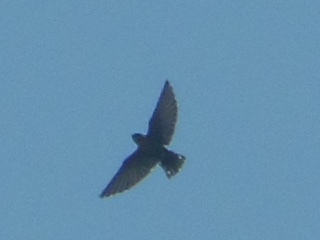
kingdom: Animalia
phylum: Chordata
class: Aves
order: Passeriformes
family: Hirundinidae
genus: Ptyonoprogne
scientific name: Ptyonoprogne concolor
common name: Dusky crag-martin
